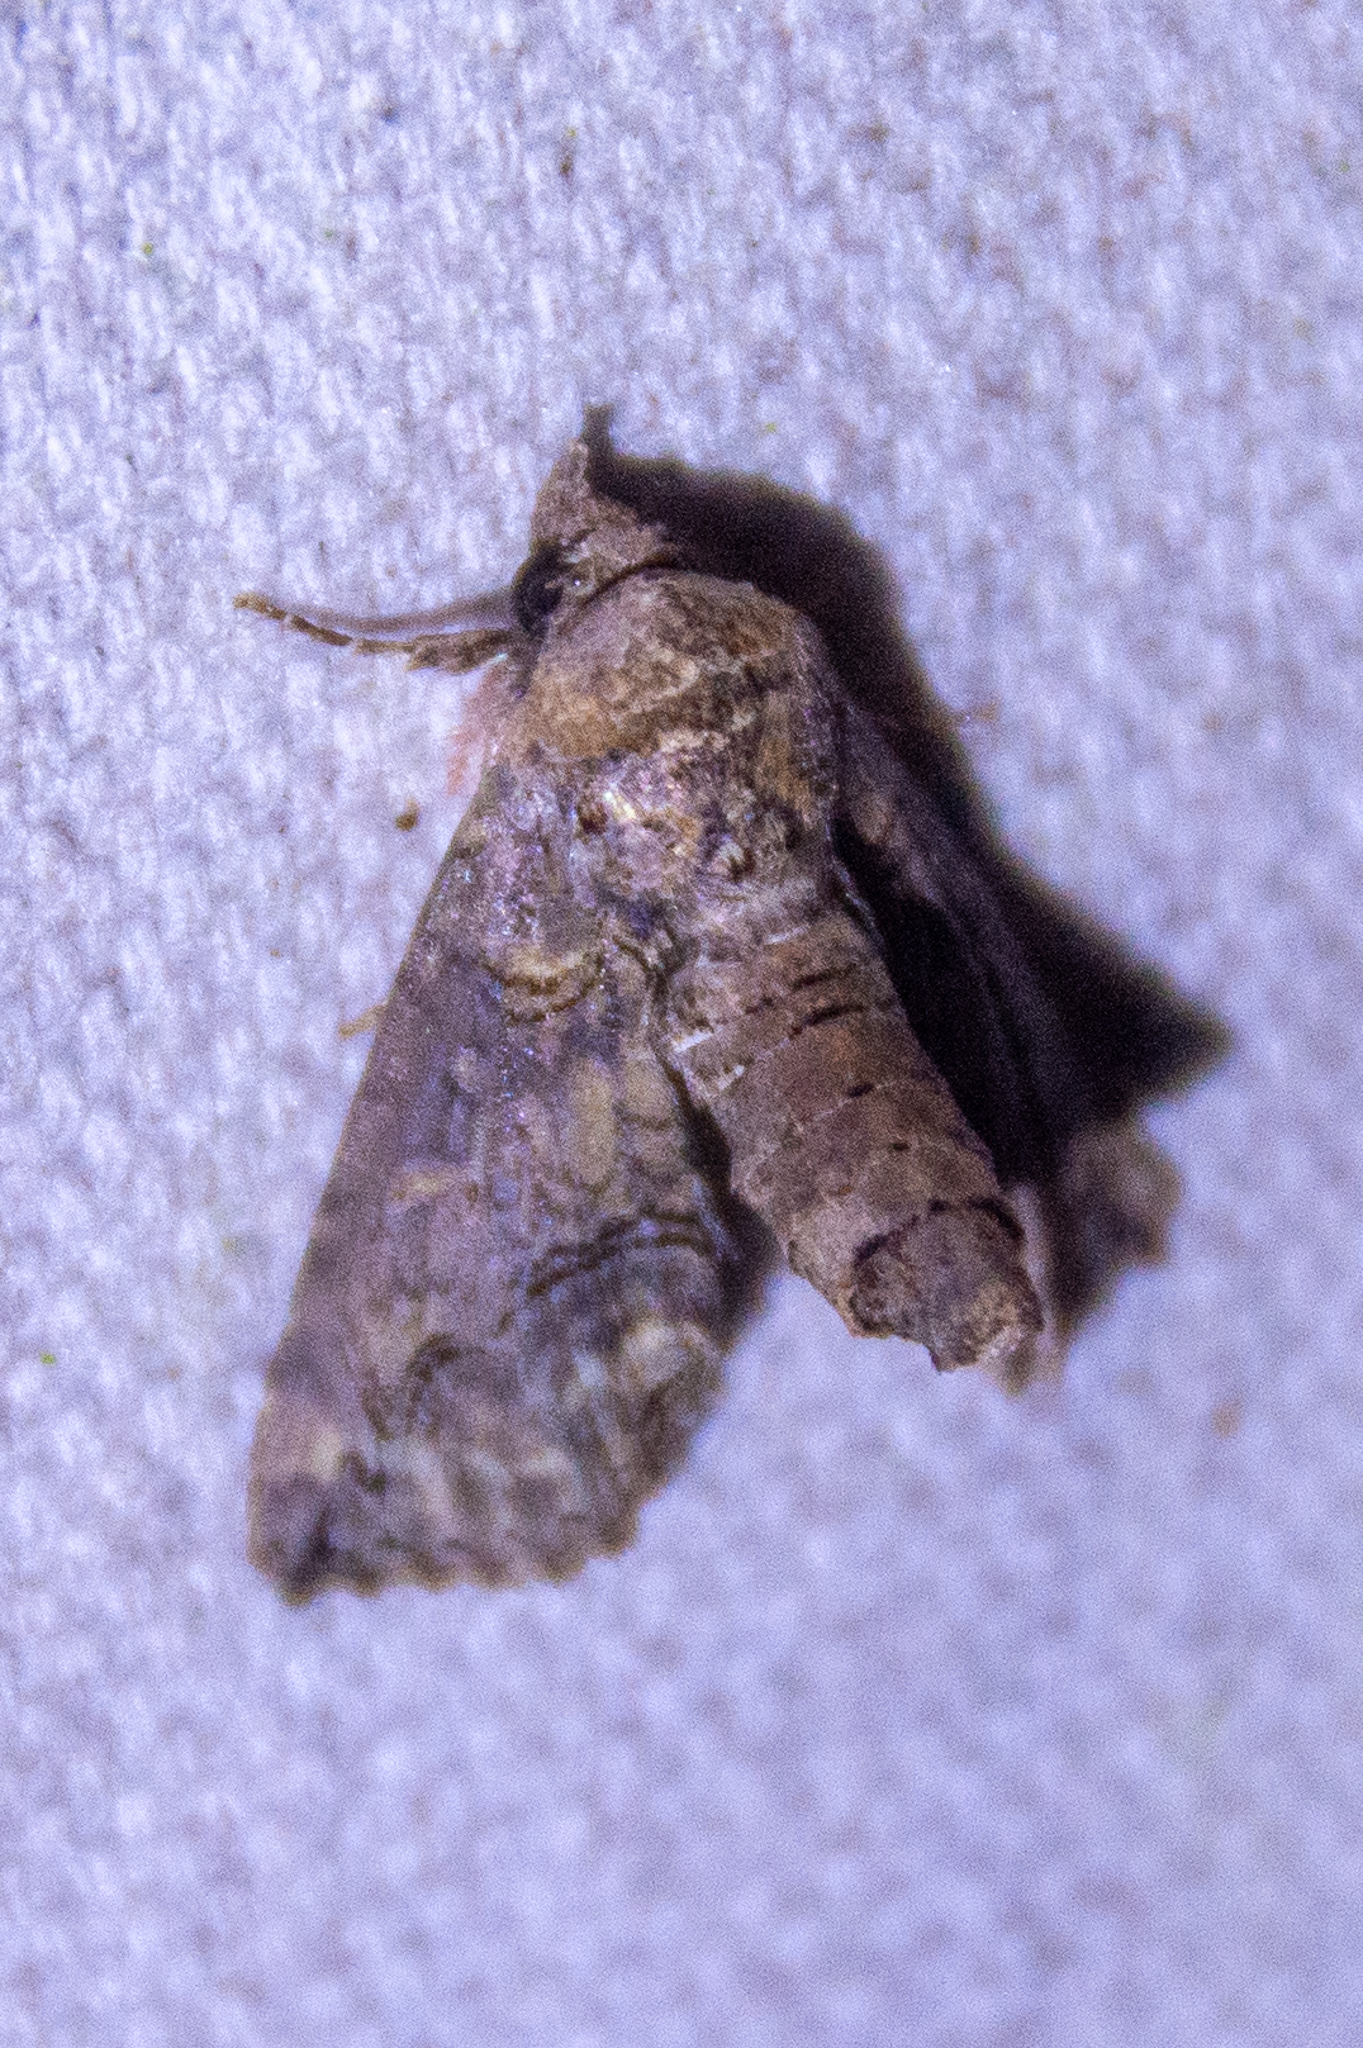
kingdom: Animalia
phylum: Arthropoda
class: Insecta
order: Lepidoptera
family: Euteliidae
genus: Paectes
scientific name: Paectes abrostoloides
